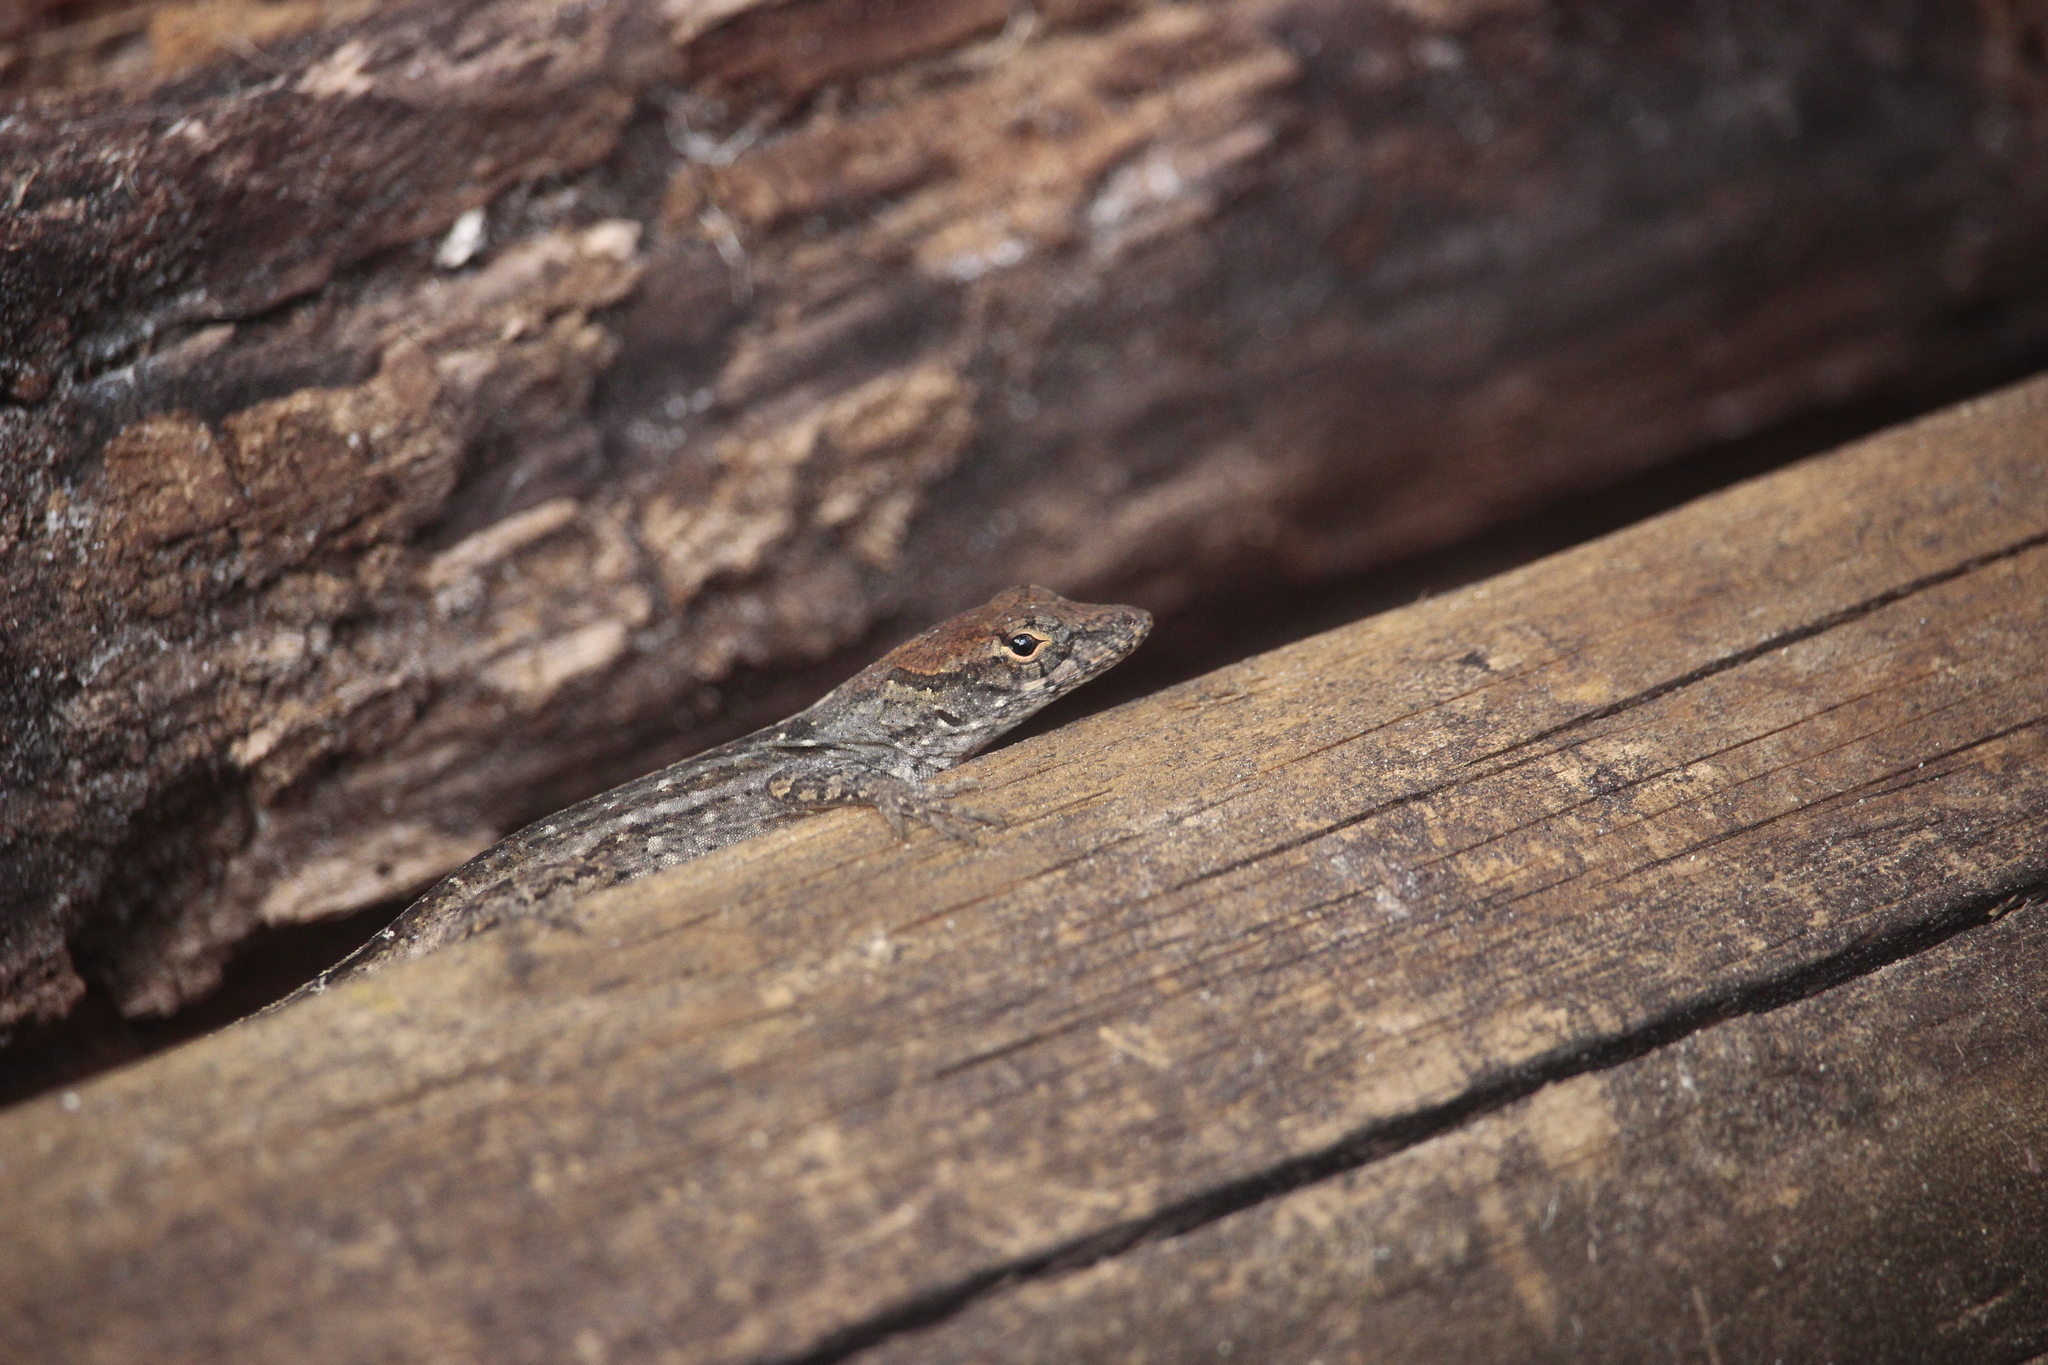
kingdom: Animalia
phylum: Chordata
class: Squamata
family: Dactyloidae
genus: Anolis
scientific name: Anolis sagrei
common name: Brown anole
